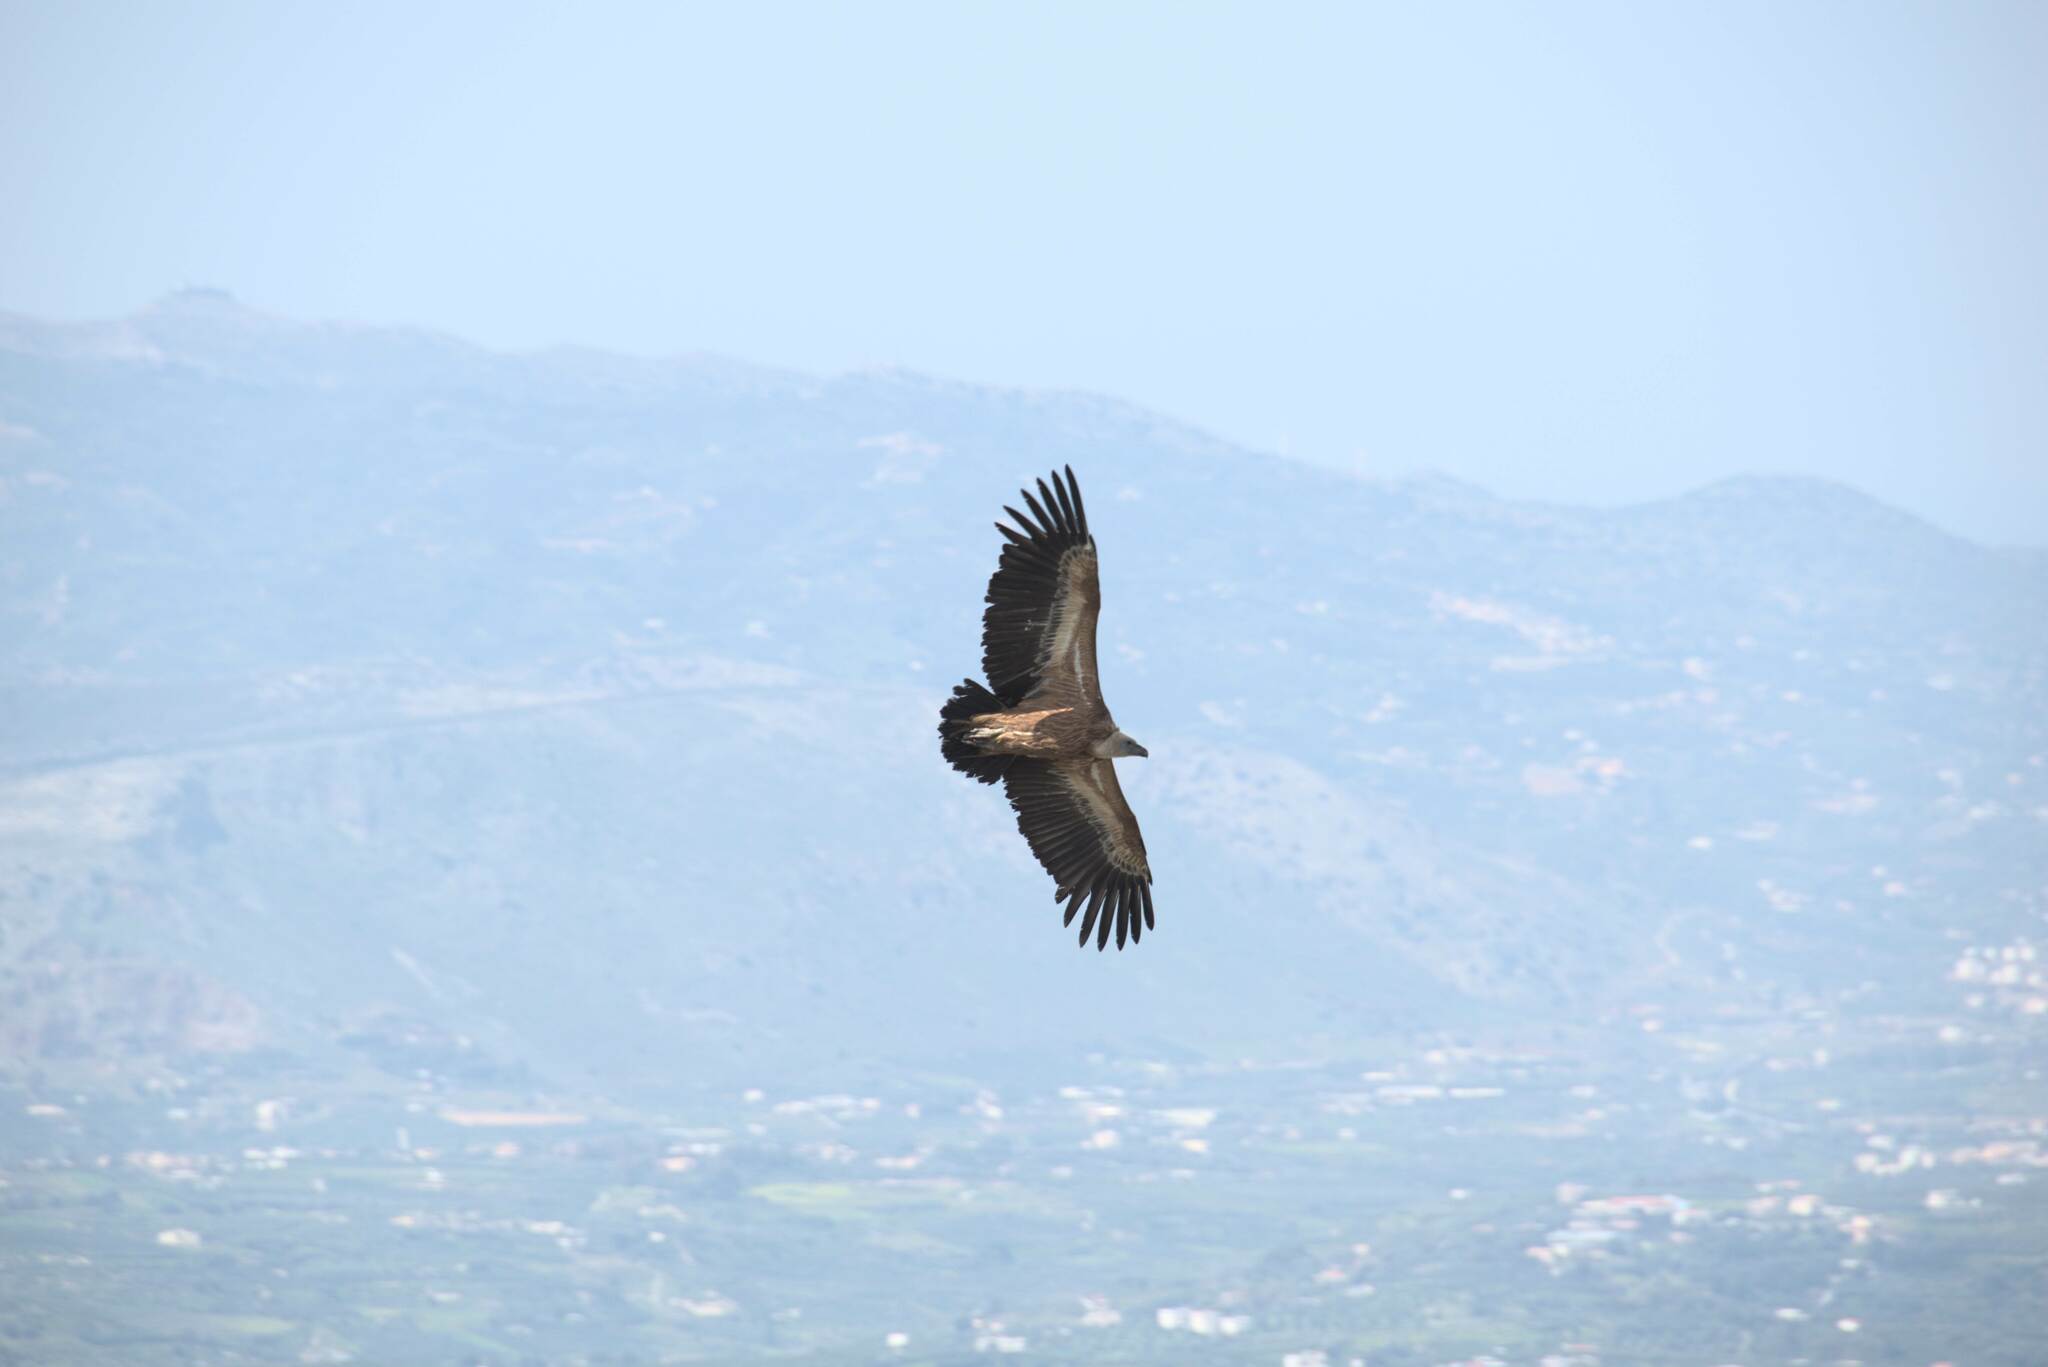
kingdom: Animalia
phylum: Chordata
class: Aves
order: Accipitriformes
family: Accipitridae
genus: Gyps
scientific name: Gyps fulvus
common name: Griffon vulture
